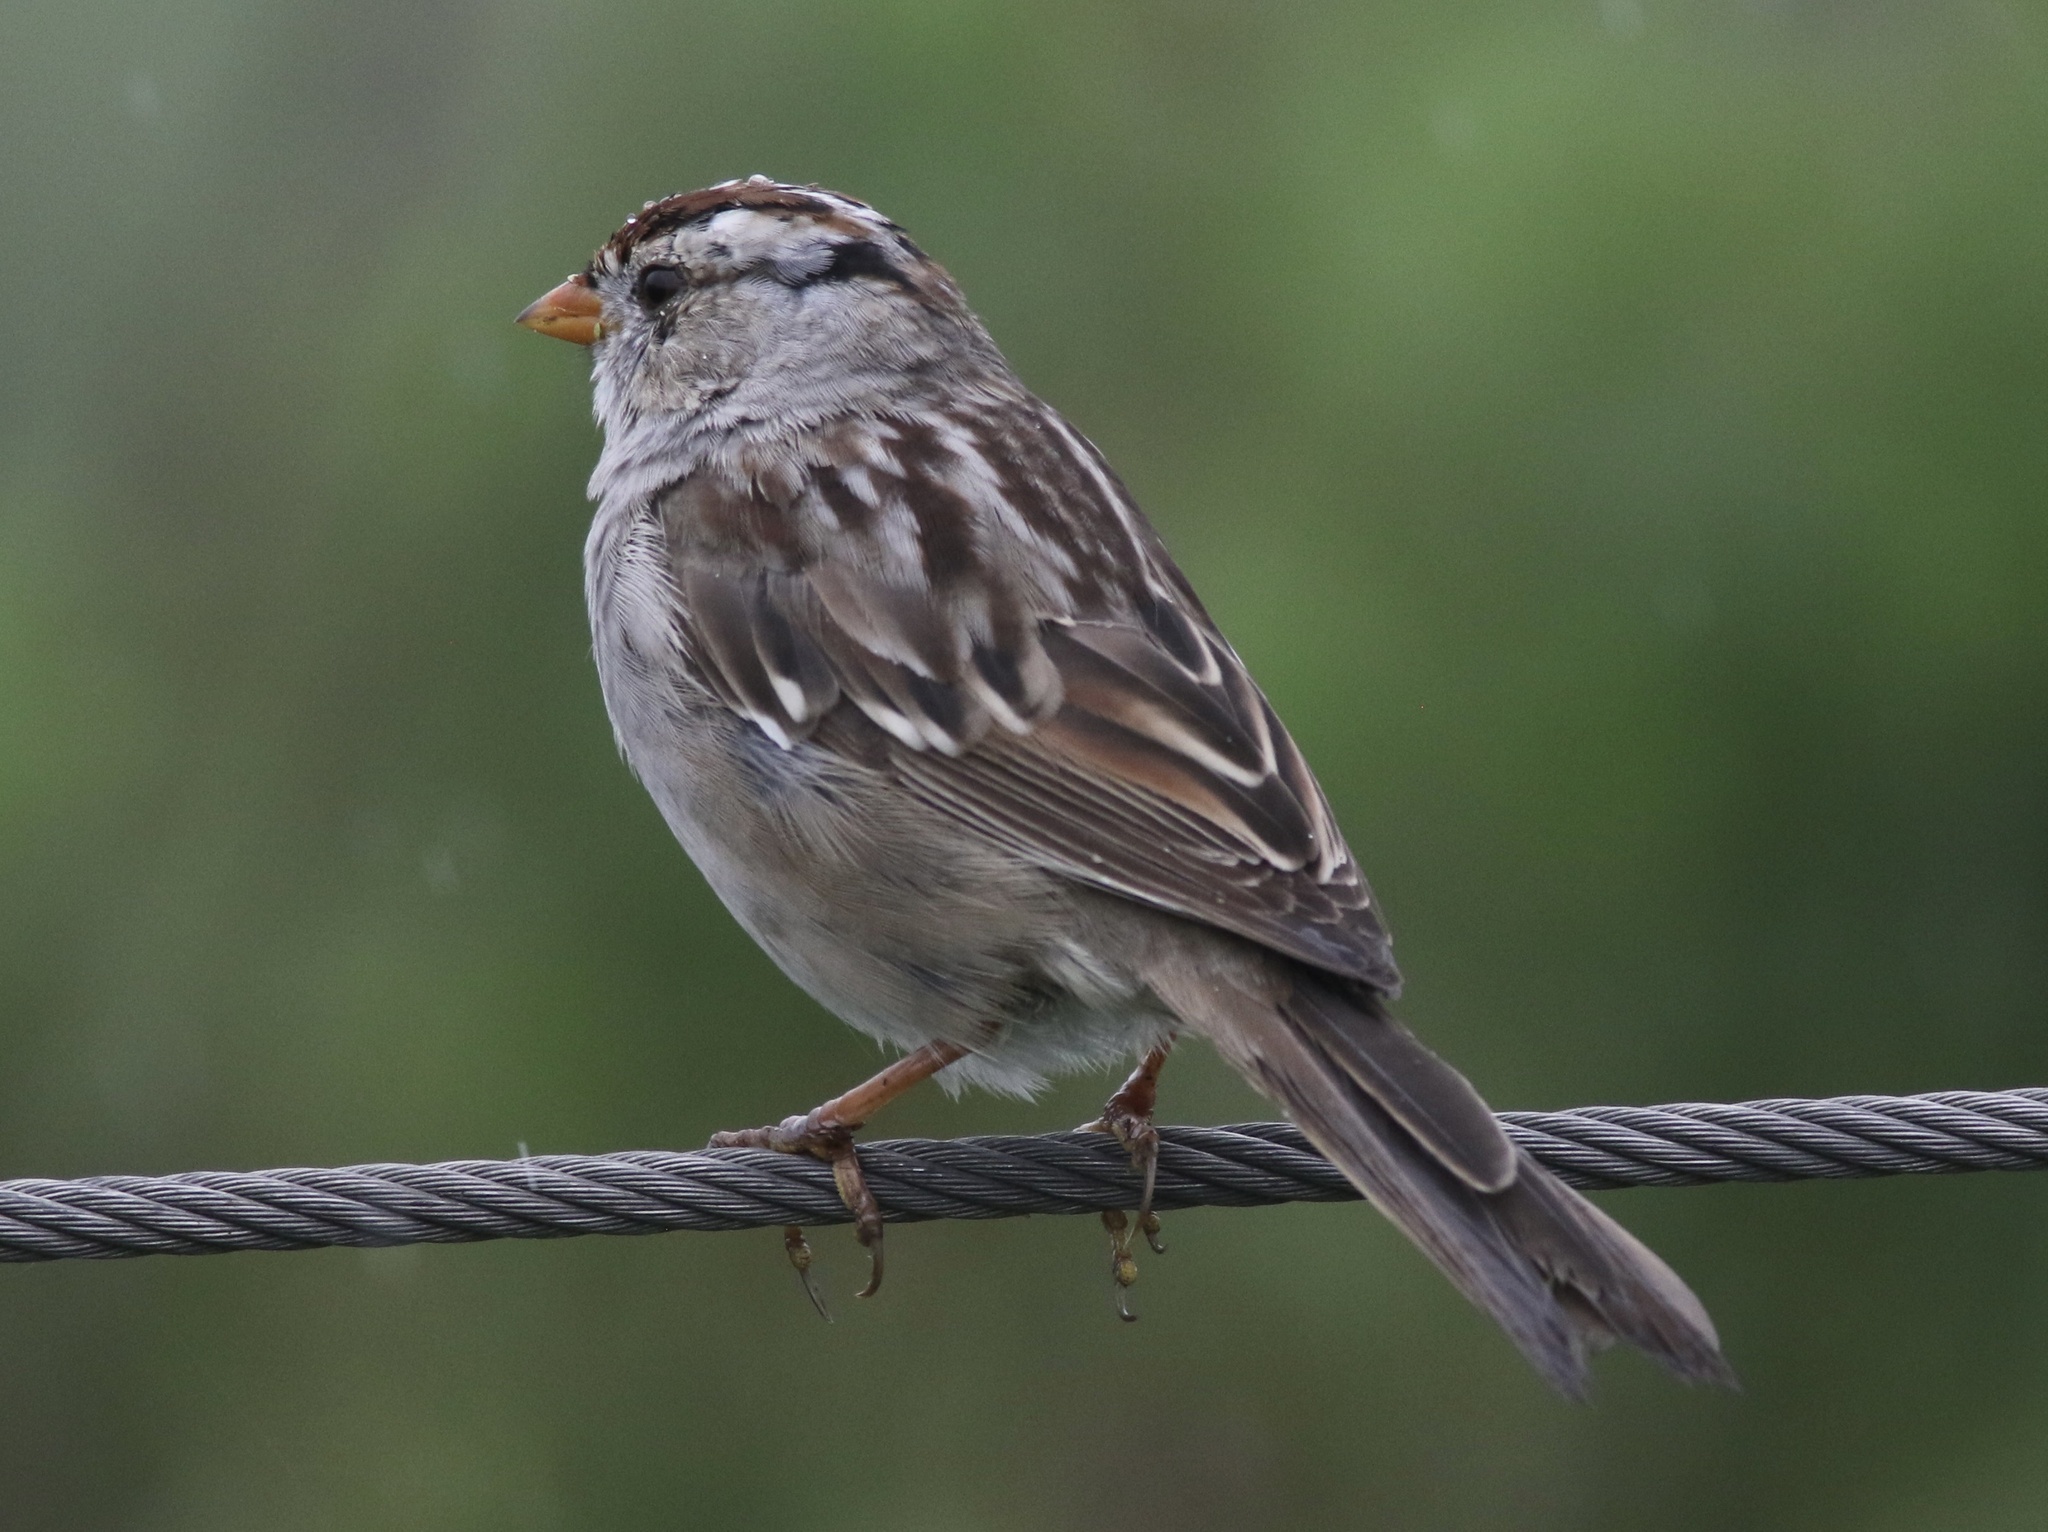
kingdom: Animalia
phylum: Chordata
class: Aves
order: Passeriformes
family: Passerellidae
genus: Zonotrichia
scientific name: Zonotrichia leucophrys
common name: White-crowned sparrow
